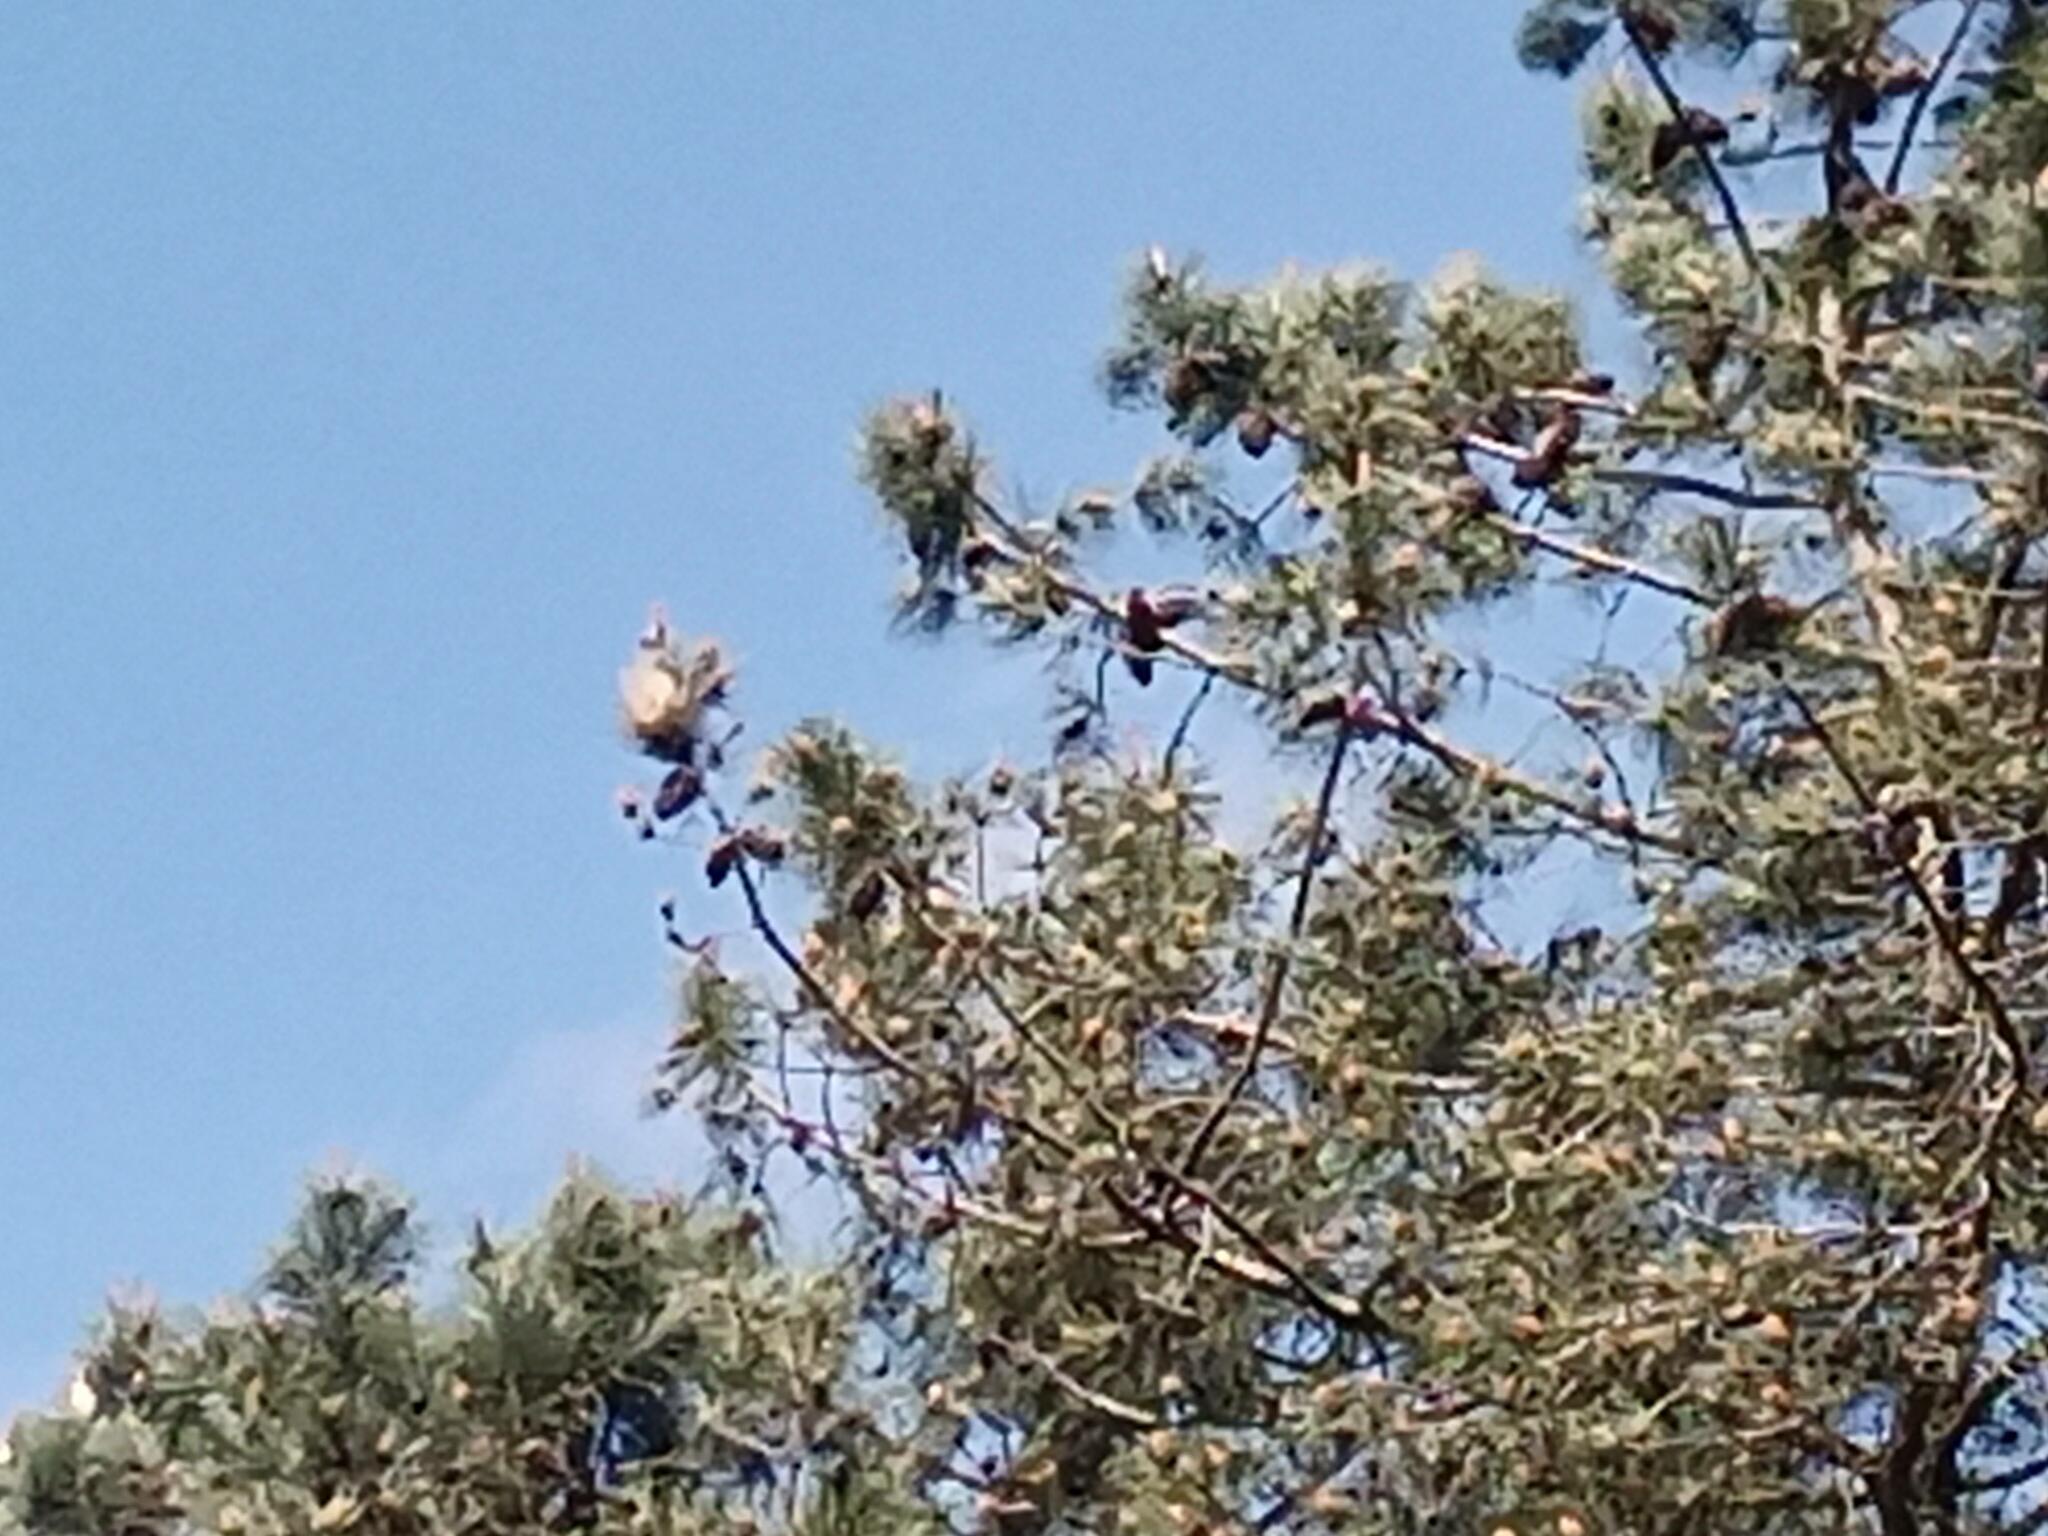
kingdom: Animalia
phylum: Arthropoda
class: Insecta
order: Lepidoptera
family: Notodontidae
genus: Thaumetopoea
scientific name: Thaumetopoea pityocampa
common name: Pine processionary
